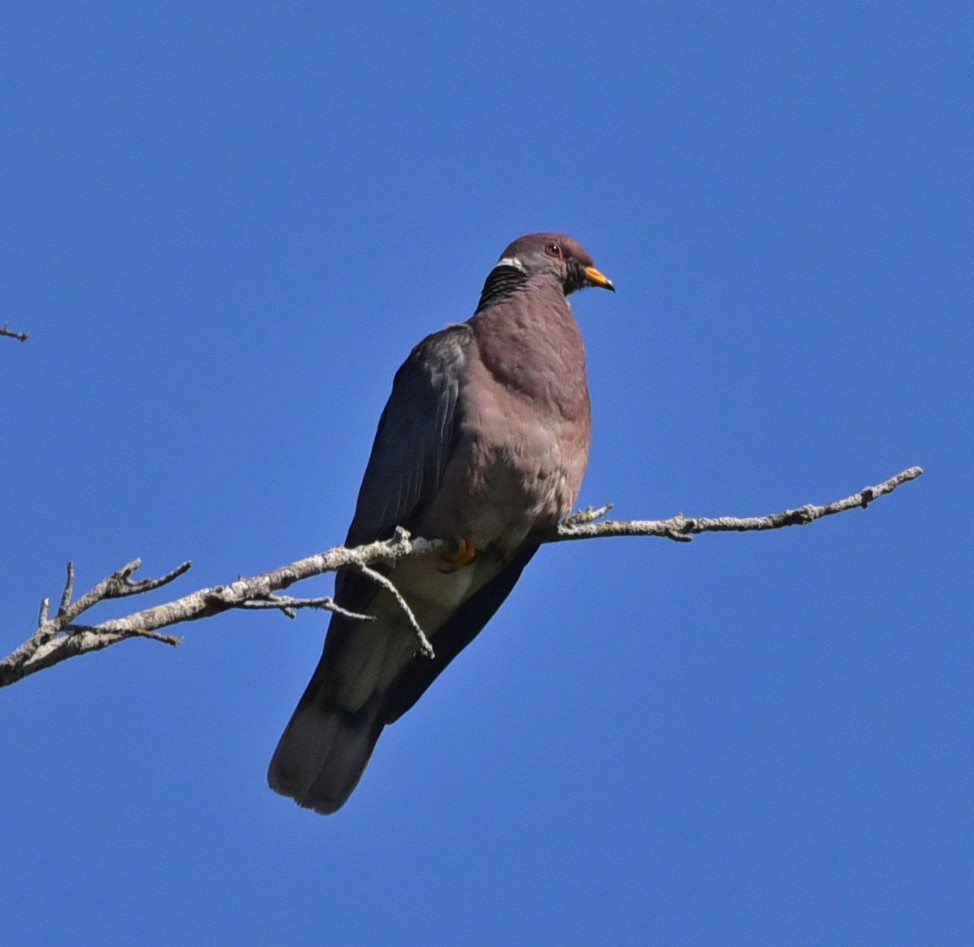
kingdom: Animalia
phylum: Chordata
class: Aves
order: Columbiformes
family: Columbidae
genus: Patagioenas
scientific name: Patagioenas fasciata
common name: Band-tailed pigeon
